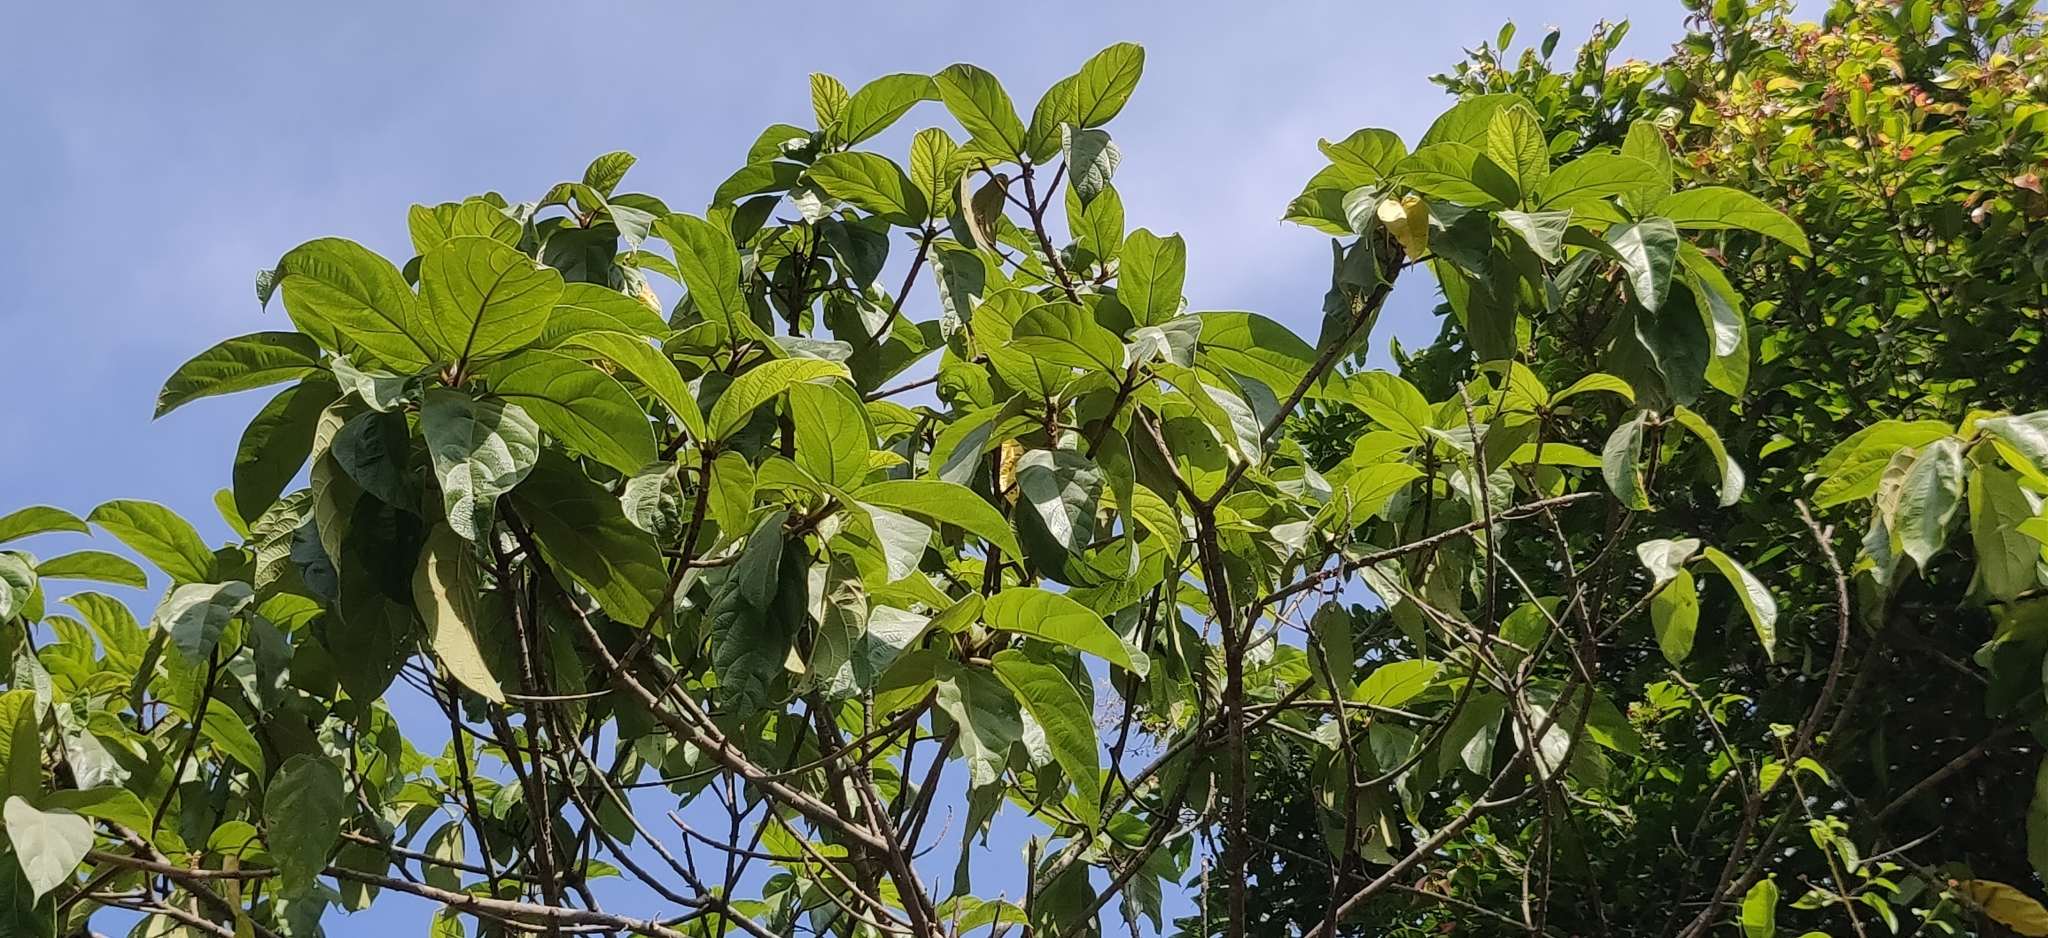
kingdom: Plantae
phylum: Tracheophyta
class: Magnoliopsida
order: Rosales
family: Moraceae
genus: Ficus
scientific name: Ficus hispida
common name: Hairy fig
